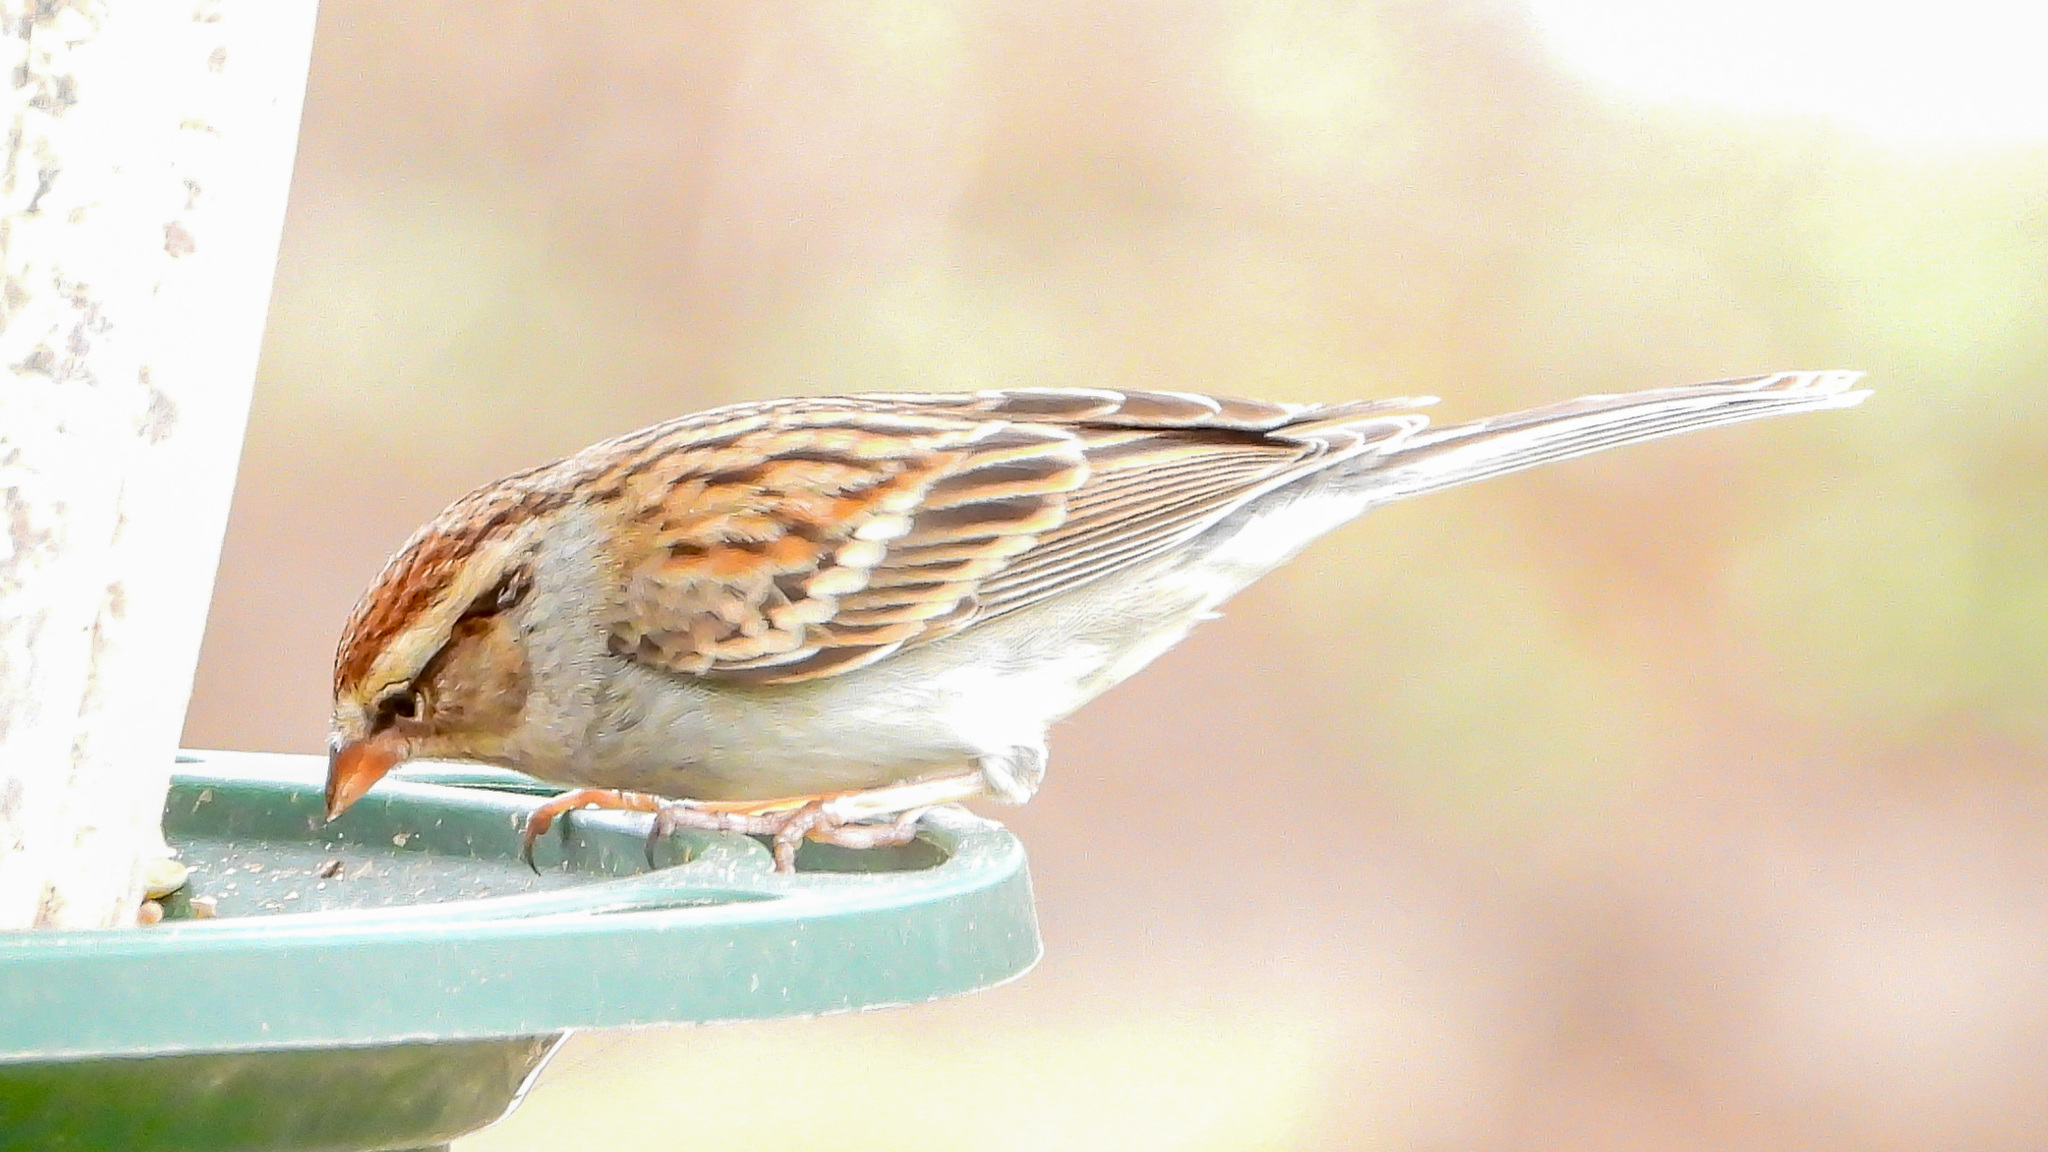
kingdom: Animalia
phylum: Chordata
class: Aves
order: Passeriformes
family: Passerellidae
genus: Spizella
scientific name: Spizella passerina
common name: Chipping sparrow
